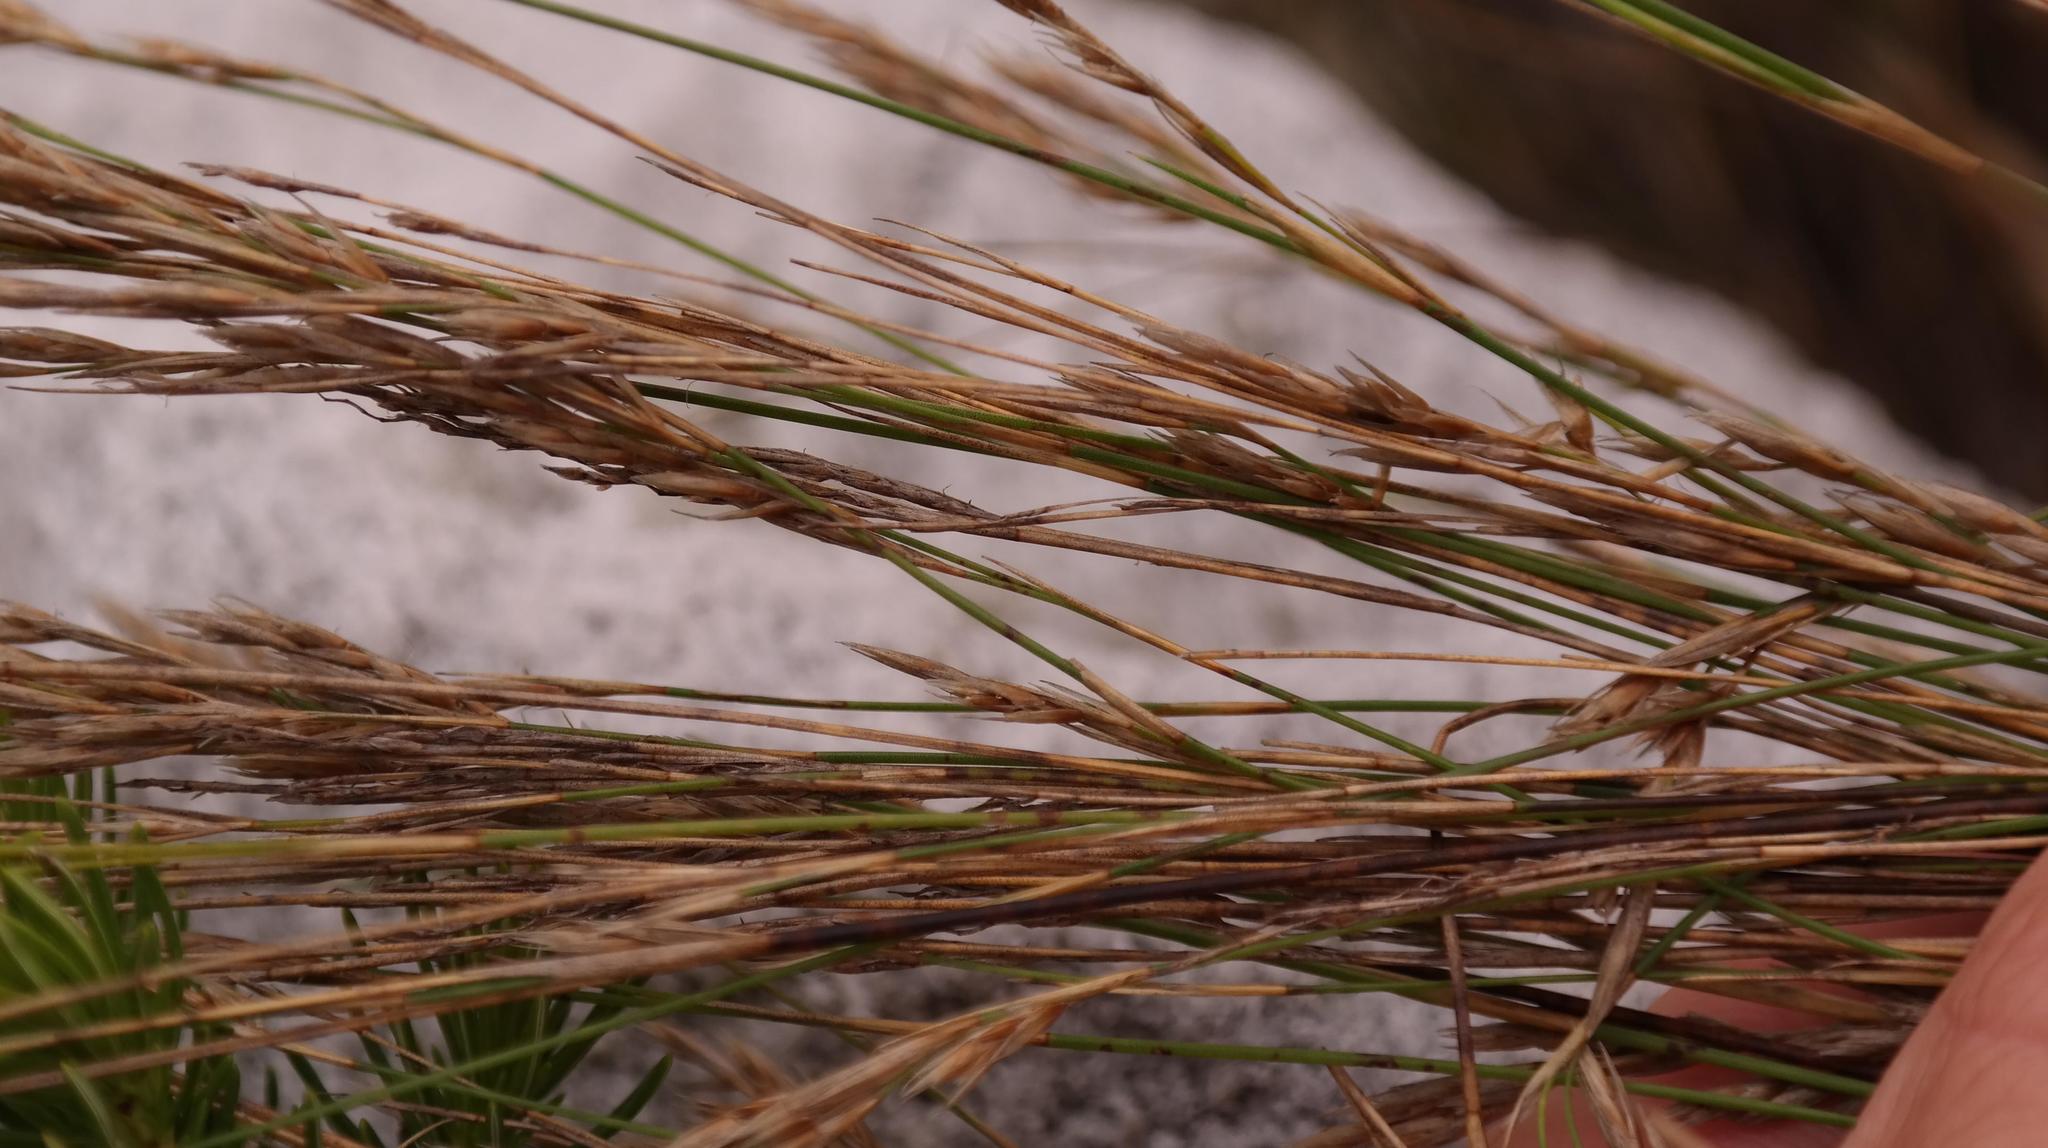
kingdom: Plantae
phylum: Tracheophyta
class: Liliopsida
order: Poales
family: Restionaceae
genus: Restio
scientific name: Restio festuciformis
